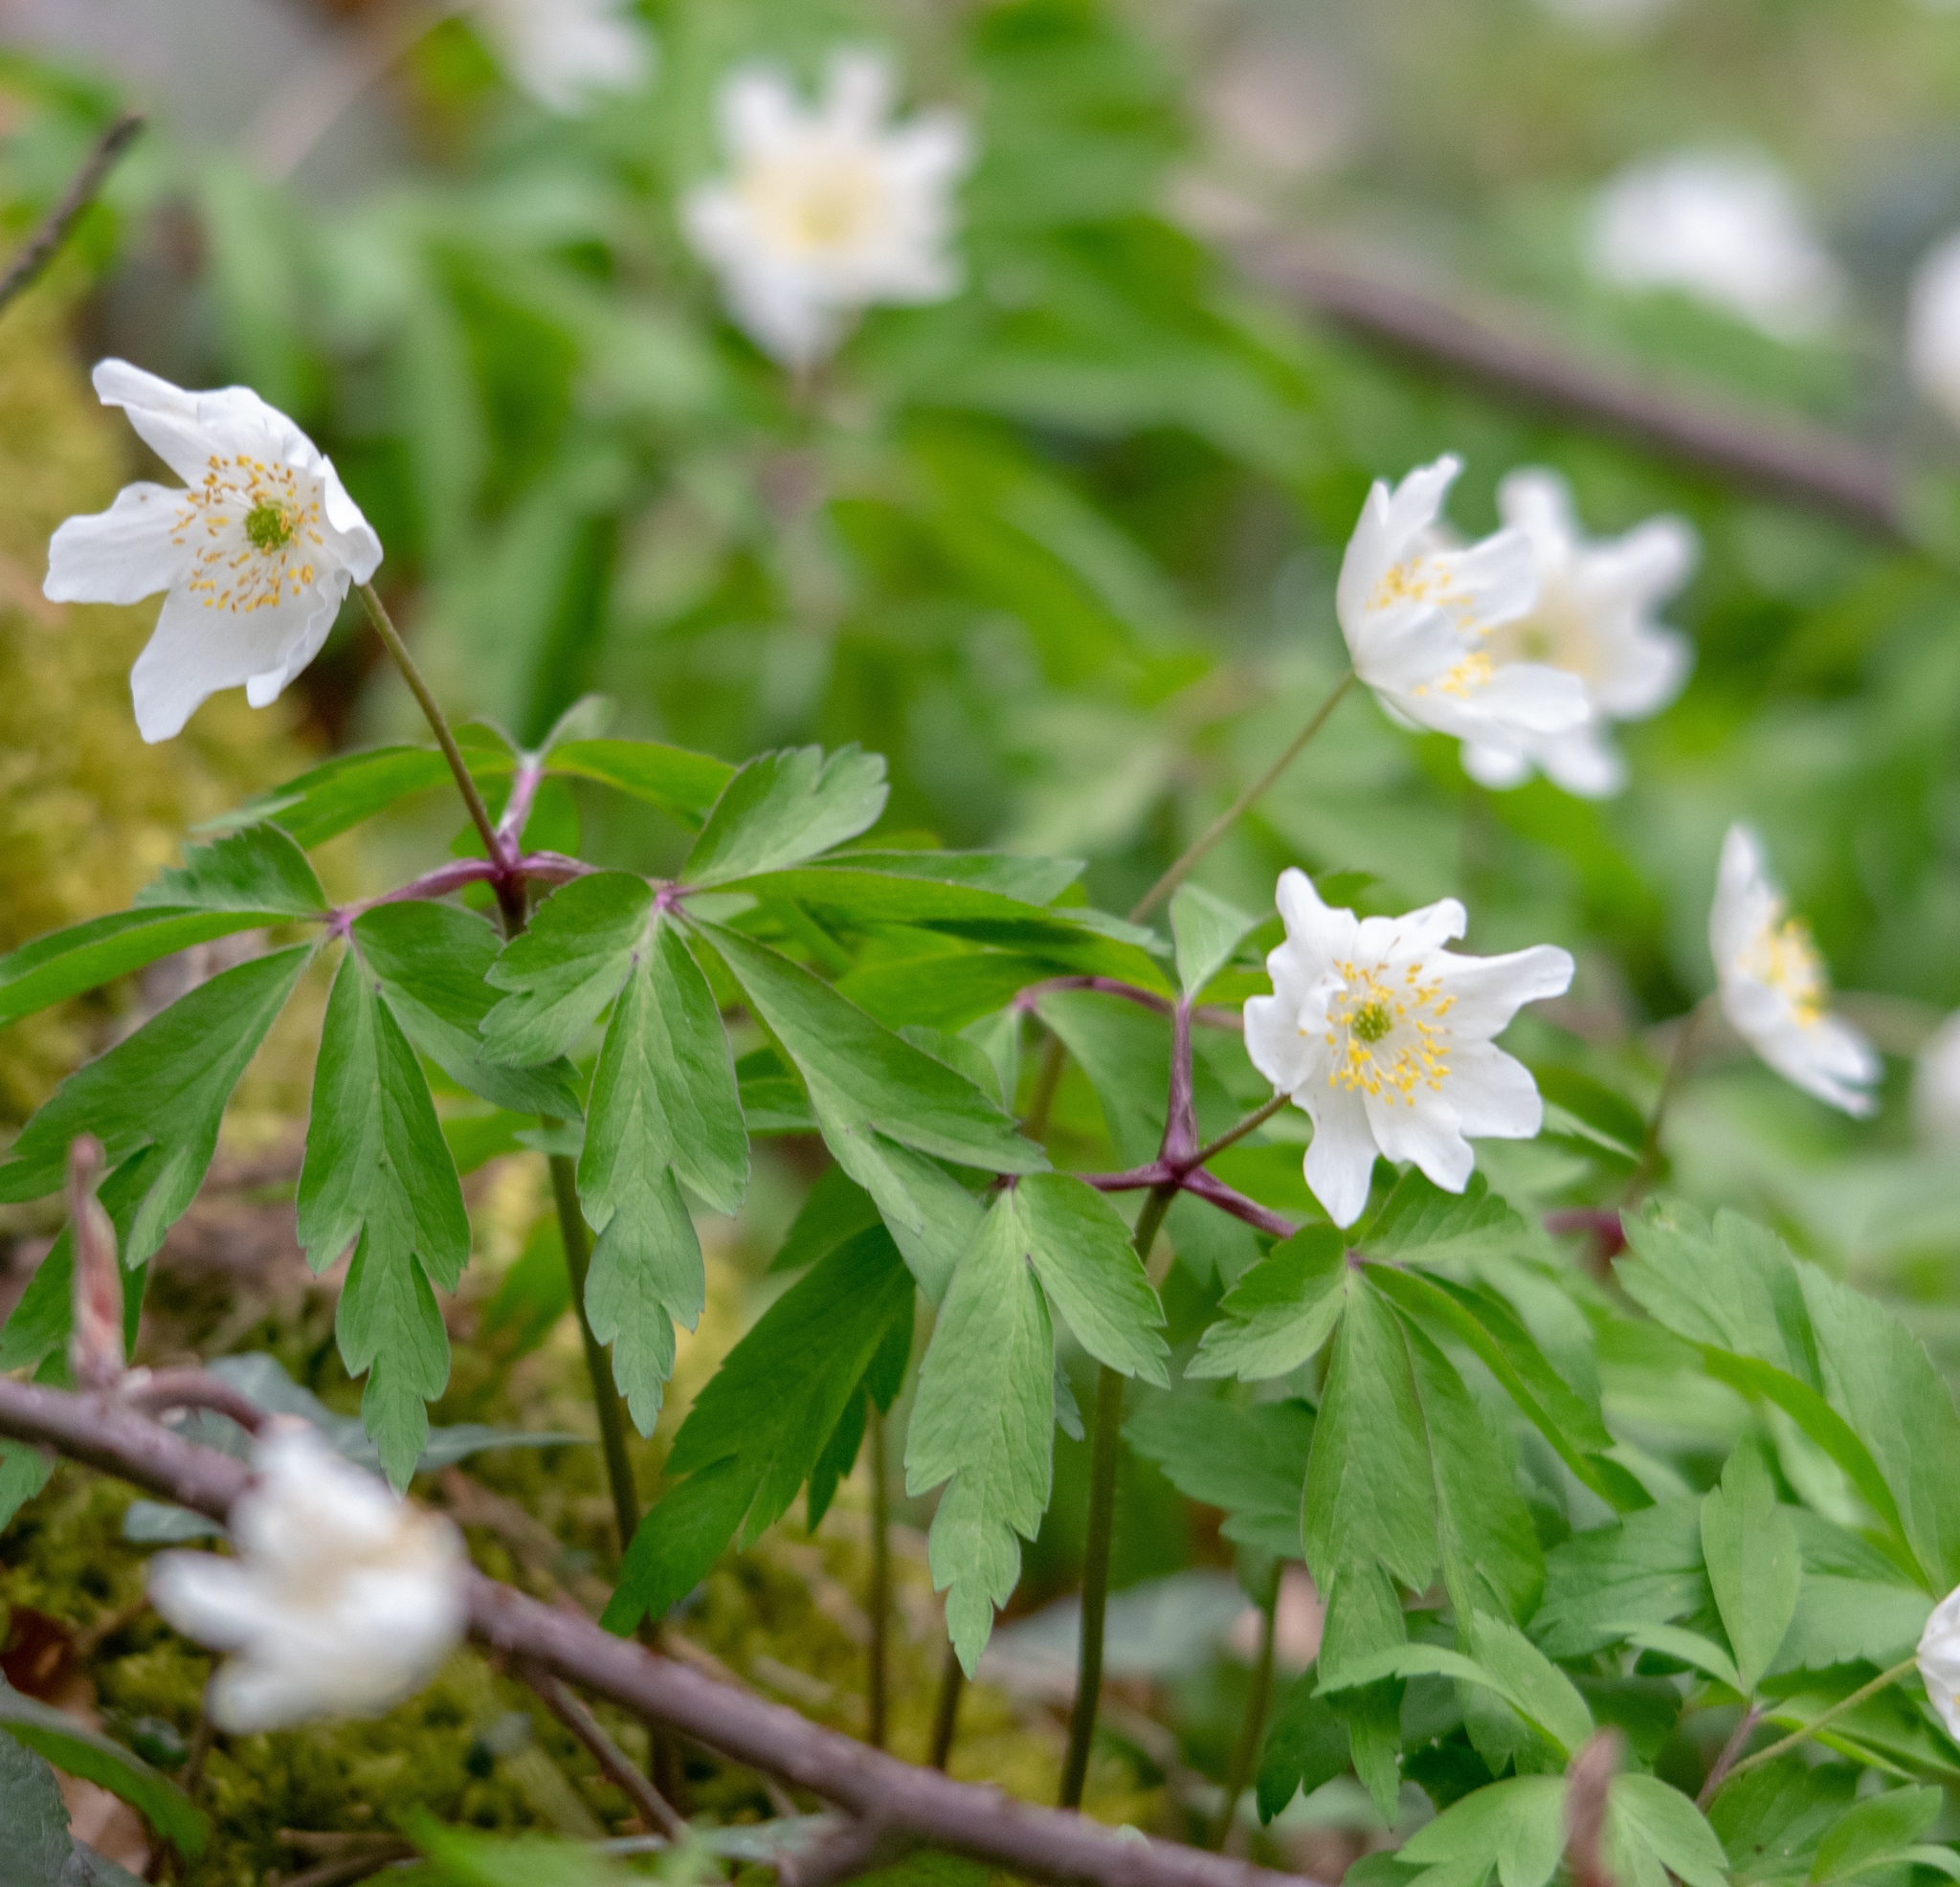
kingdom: Plantae
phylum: Tracheophyta
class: Magnoliopsida
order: Ranunculales
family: Ranunculaceae
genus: Anemone
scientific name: Anemone nemorosa
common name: Wood anemone
